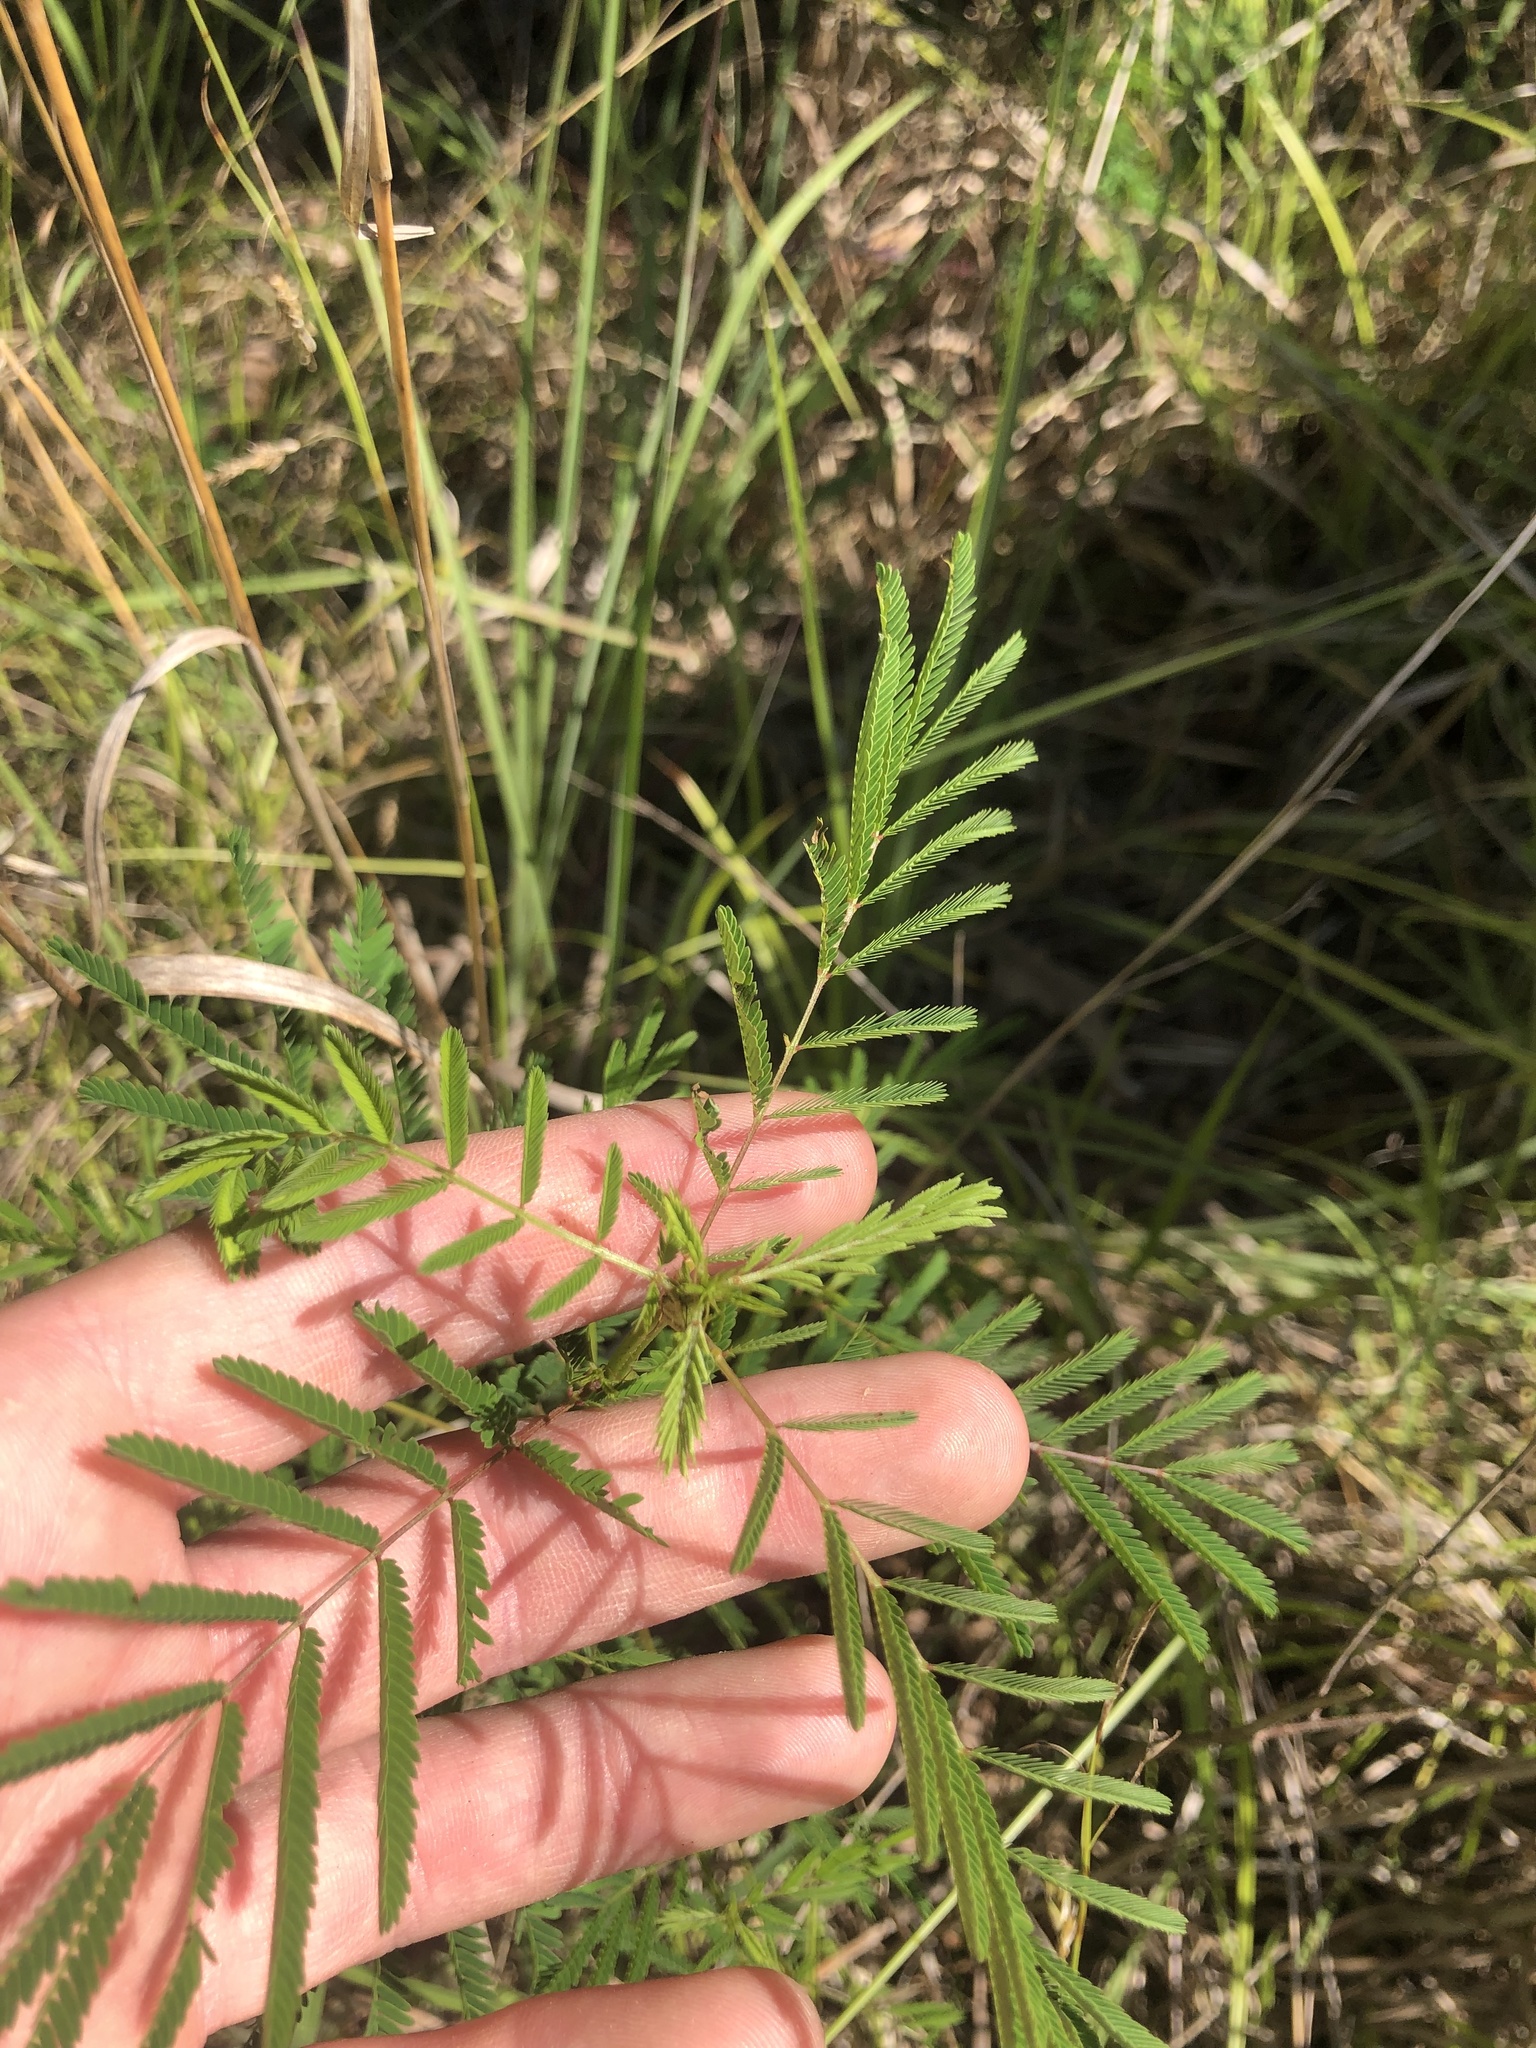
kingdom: Plantae
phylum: Tracheophyta
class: Magnoliopsida
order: Fabales
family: Fabaceae
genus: Desmanthus
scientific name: Desmanthus illinoensis
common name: Illinois bundle-flower
